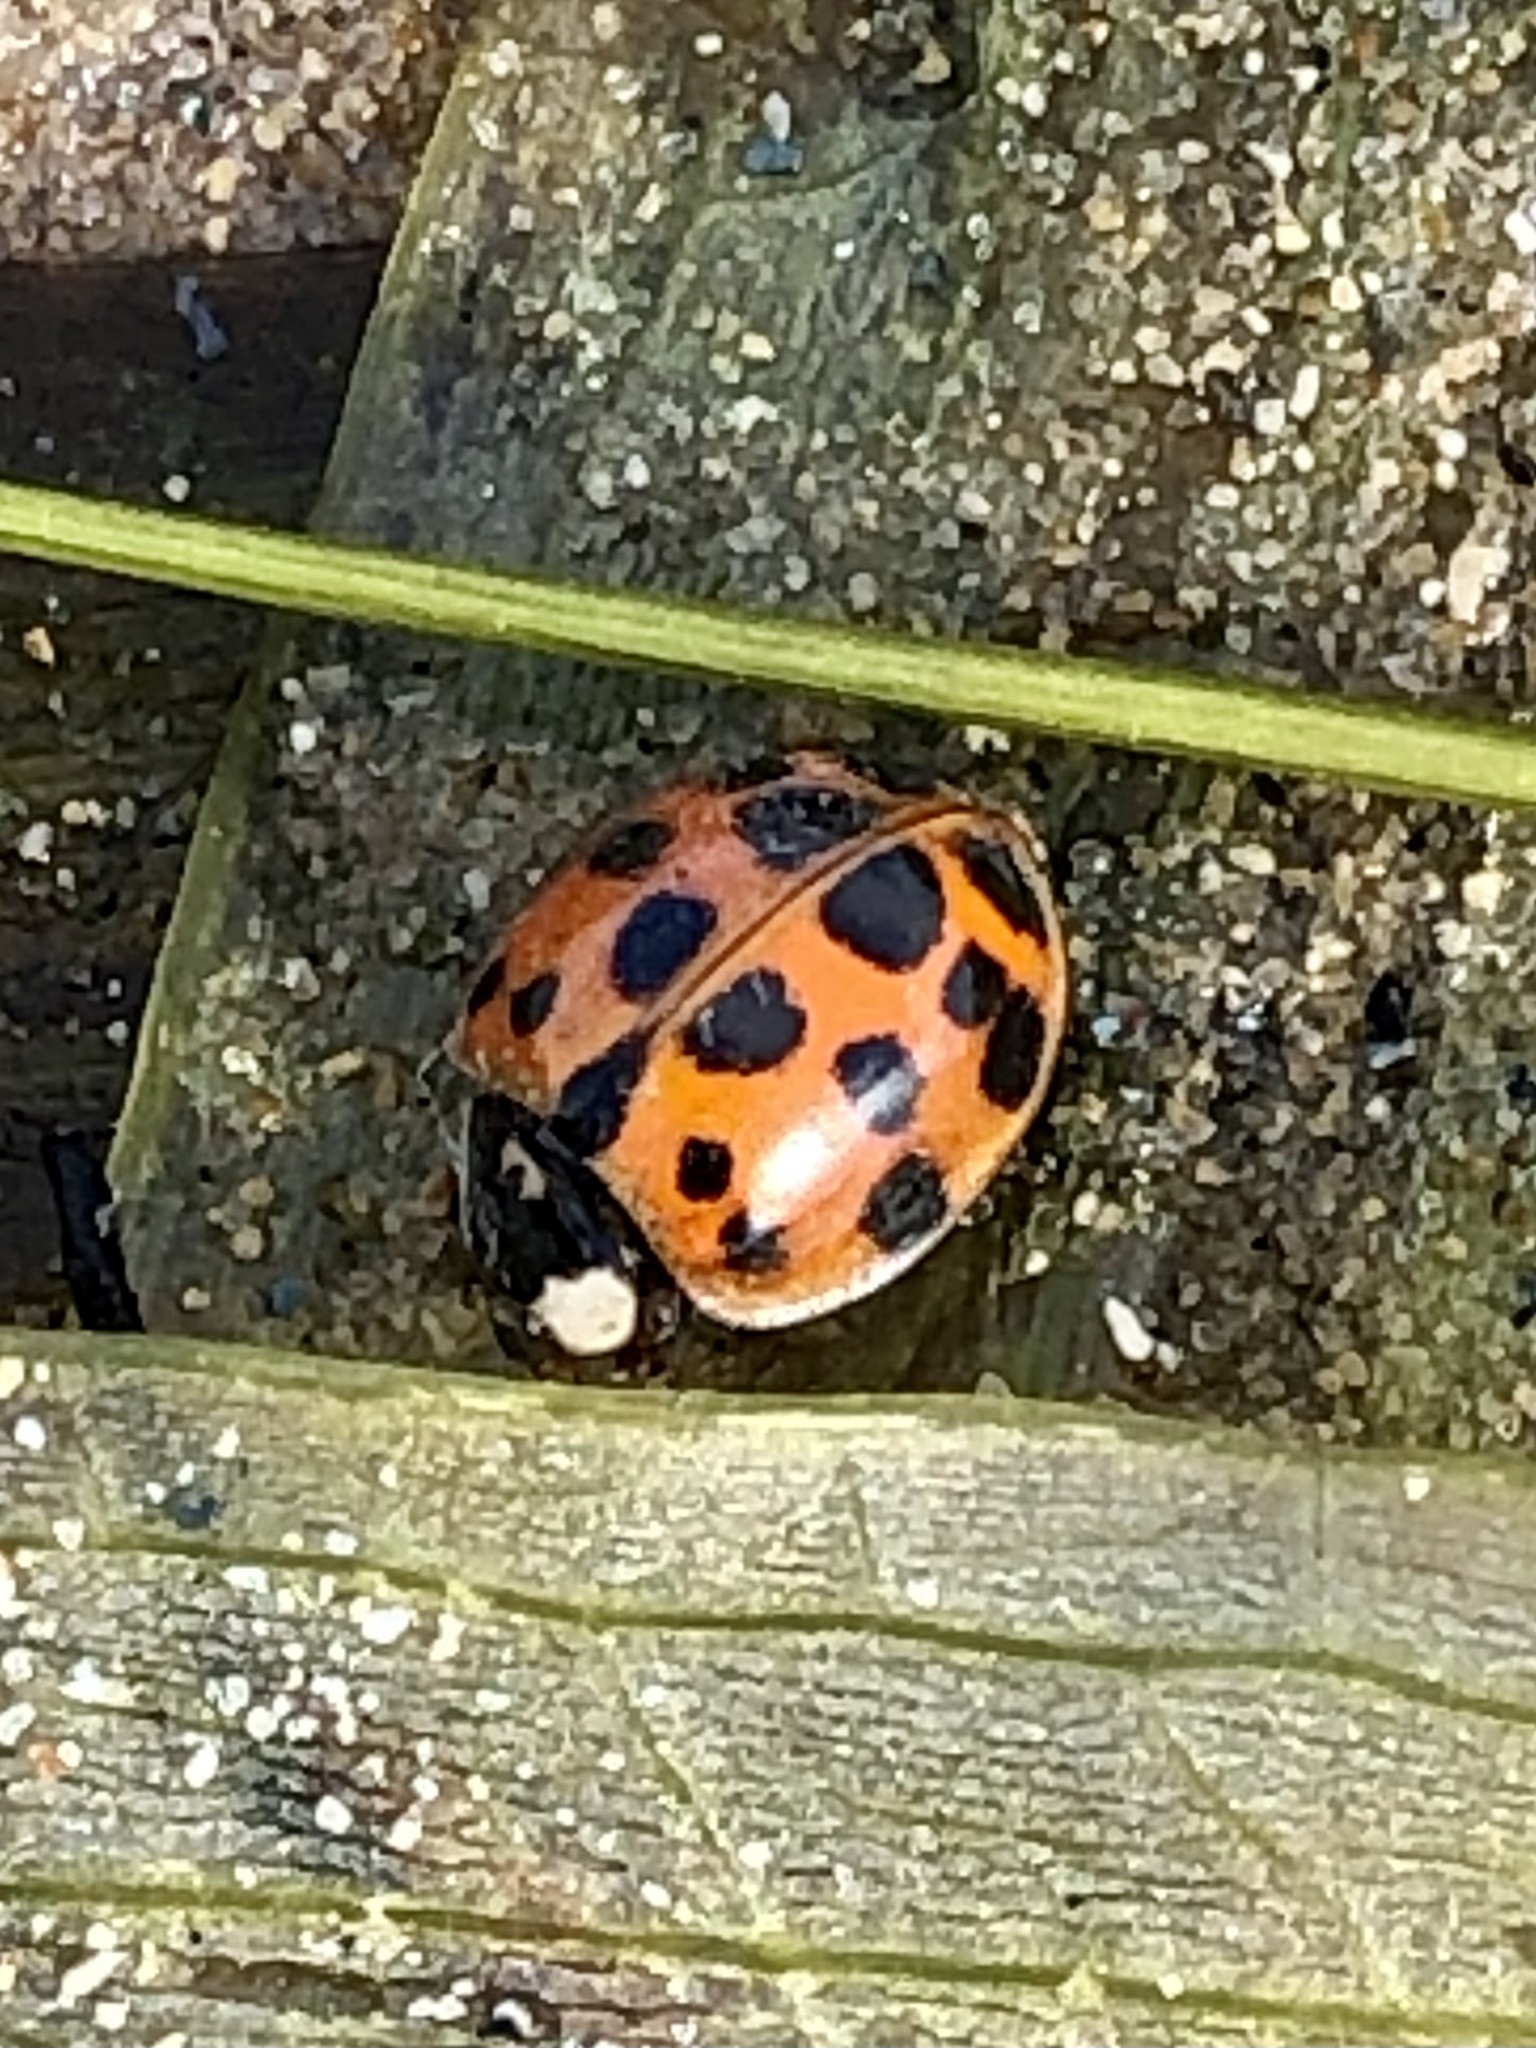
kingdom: Animalia
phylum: Arthropoda
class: Insecta
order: Coleoptera
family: Coccinellidae
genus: Harmonia
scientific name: Harmonia axyridis
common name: Harlequin ladybird
